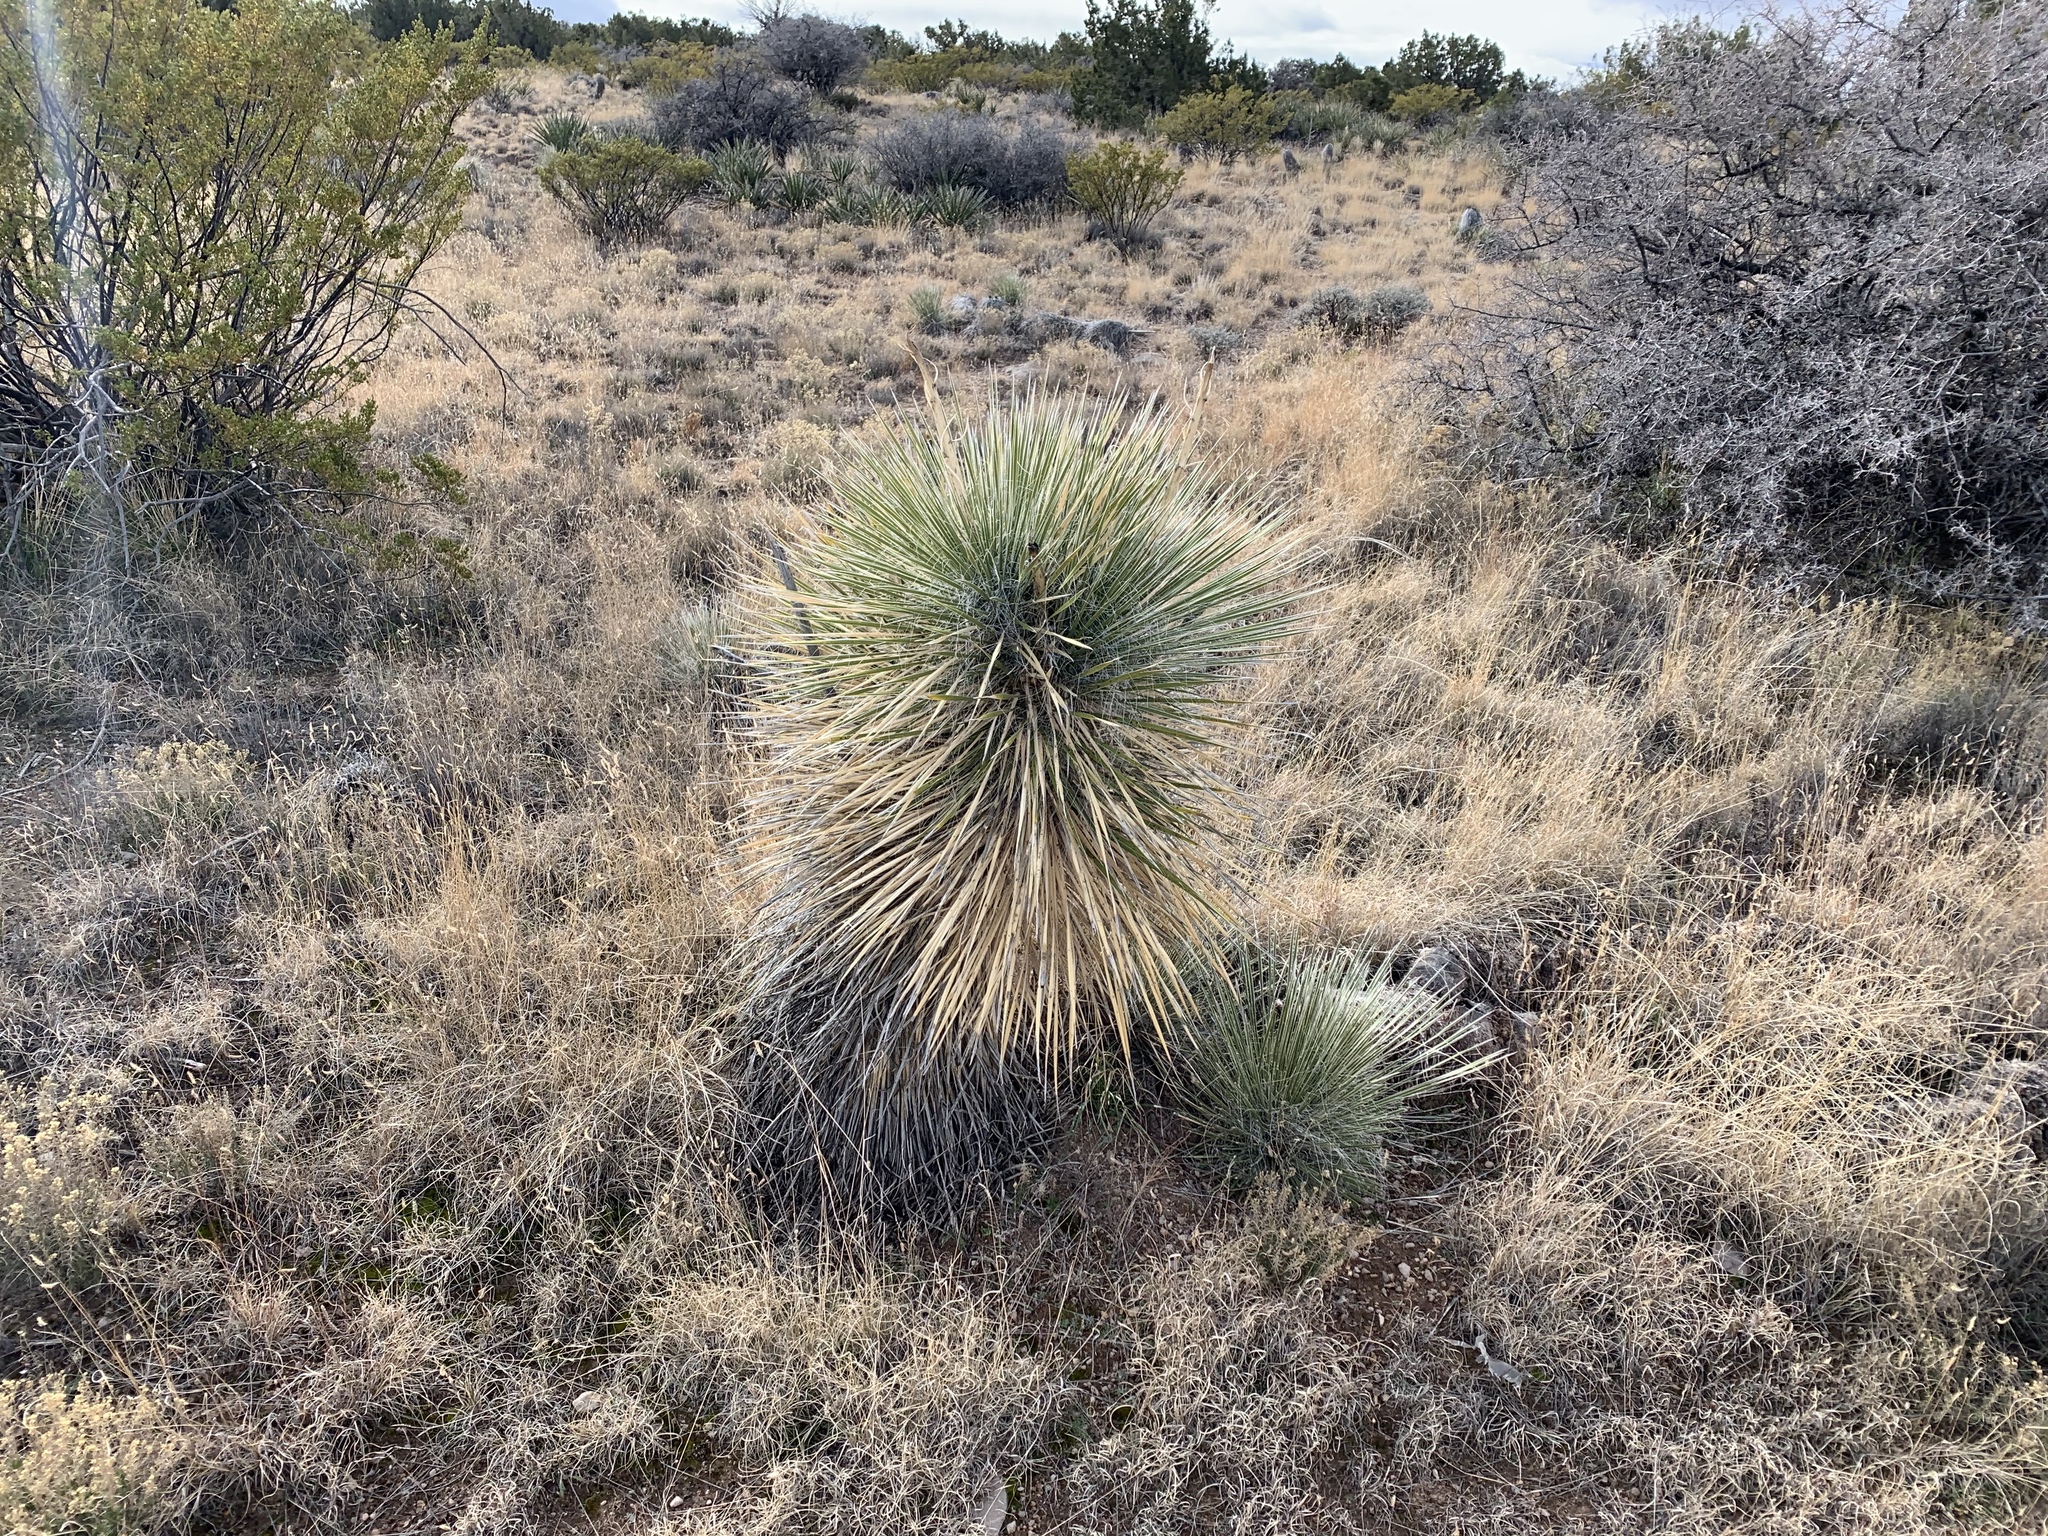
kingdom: Plantae
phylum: Tracheophyta
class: Liliopsida
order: Asparagales
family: Asparagaceae
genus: Yucca
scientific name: Yucca elata
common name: Palmella
